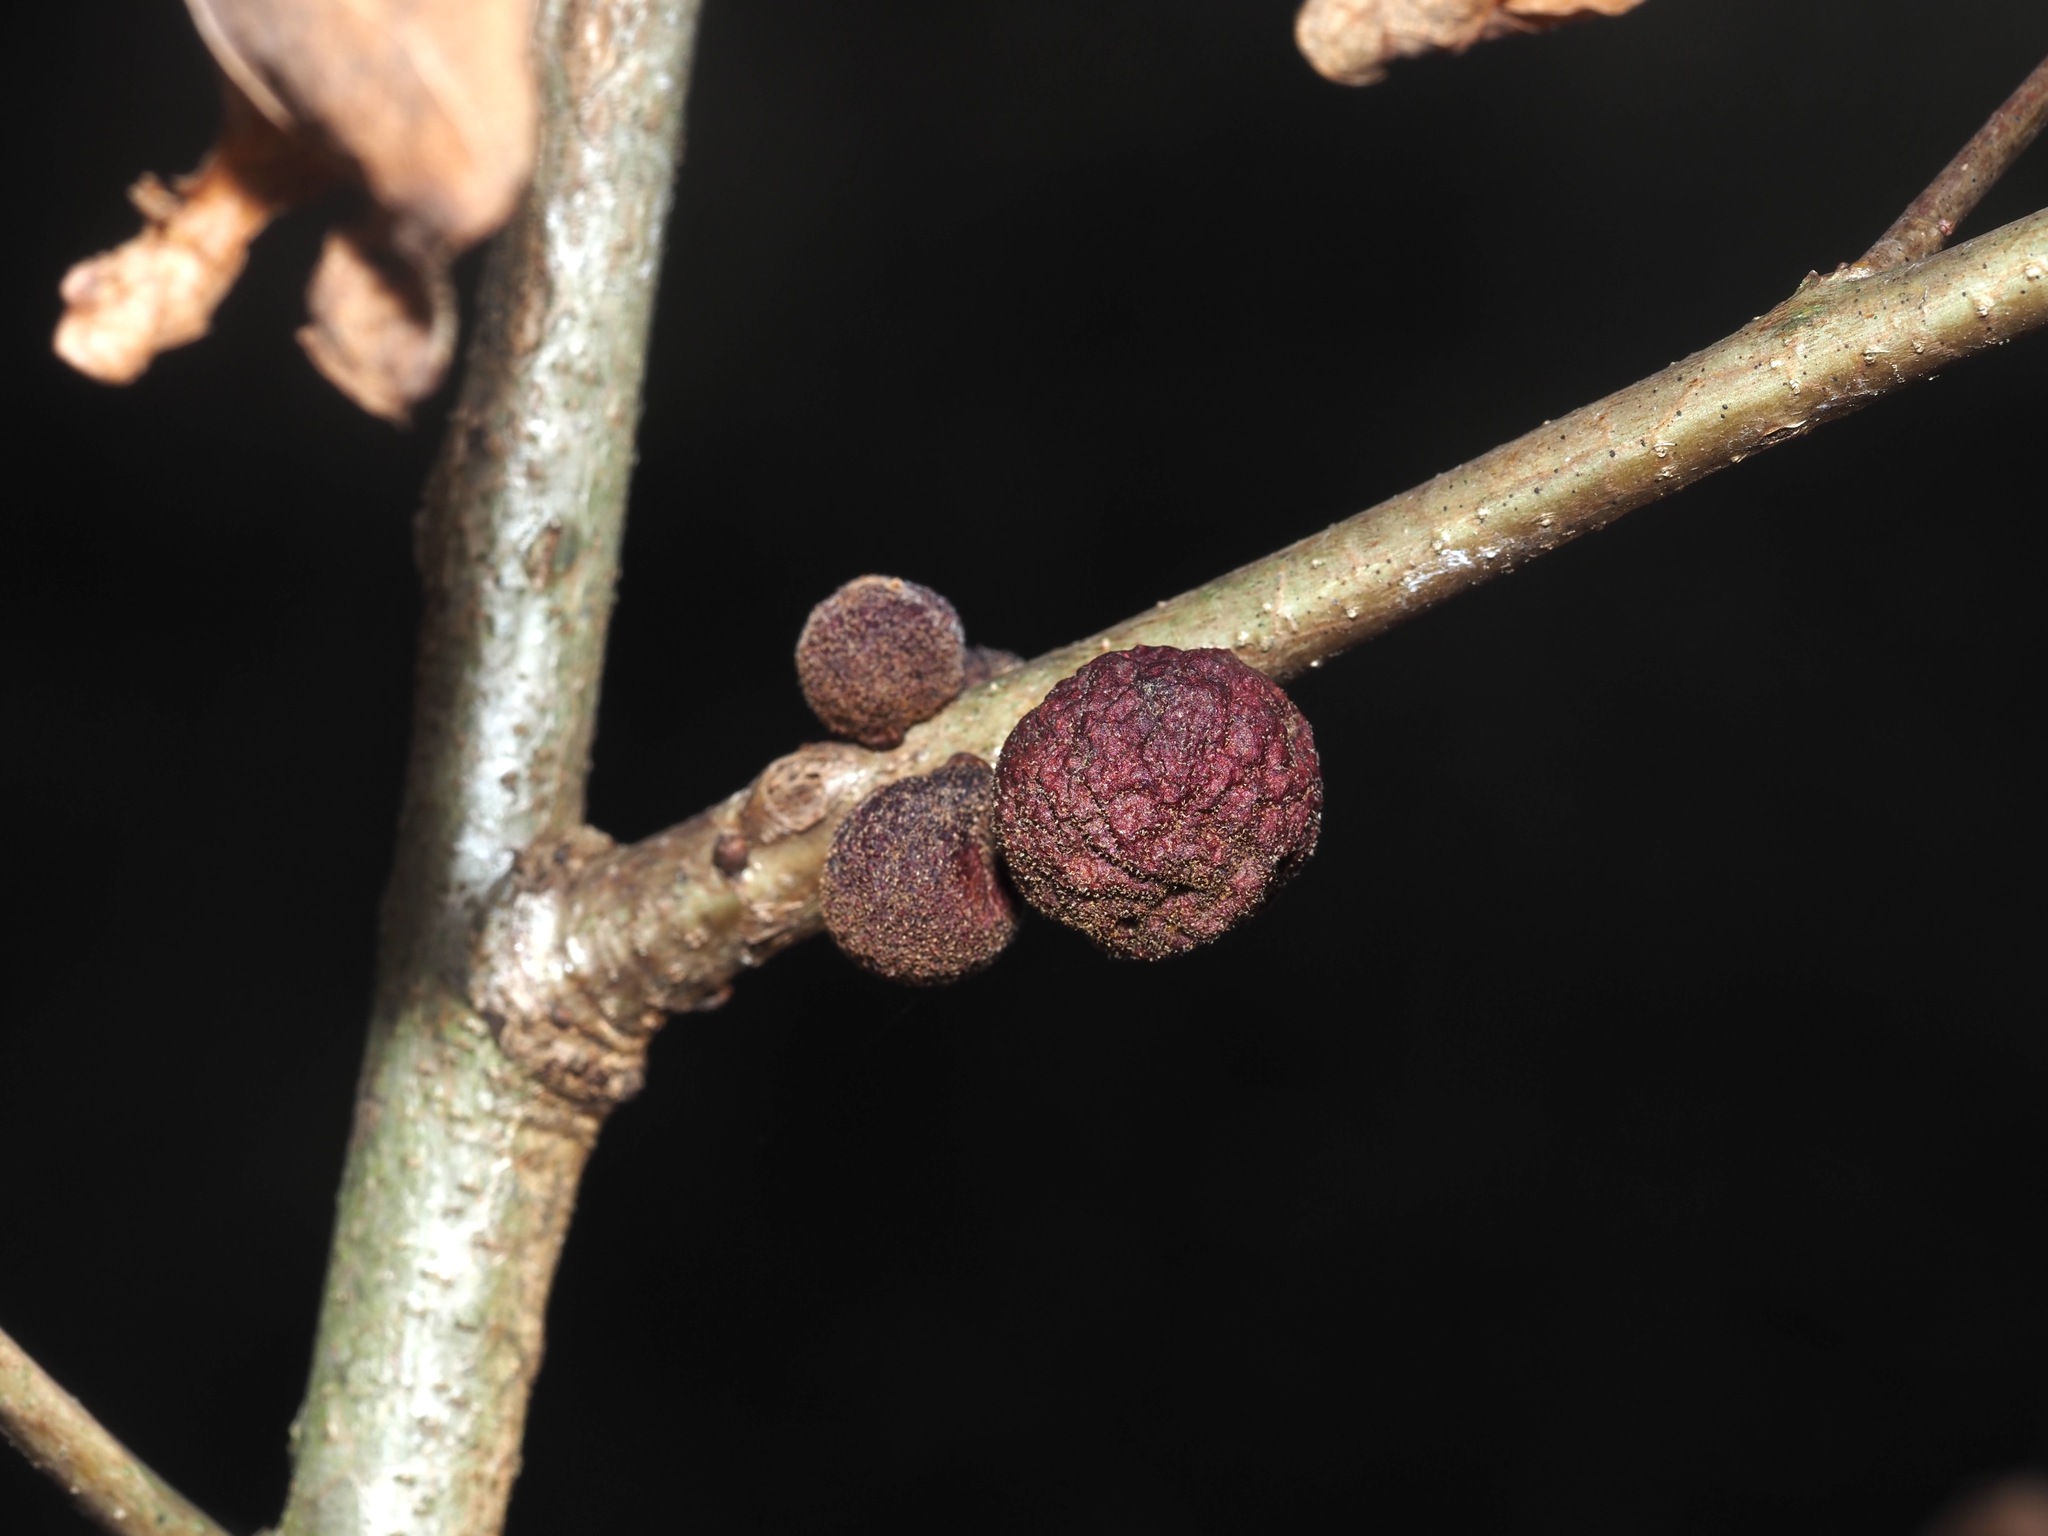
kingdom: Animalia
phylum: Arthropoda
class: Insecta
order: Hymenoptera
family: Cynipidae
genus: Disholcaspis
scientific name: Disholcaspis
